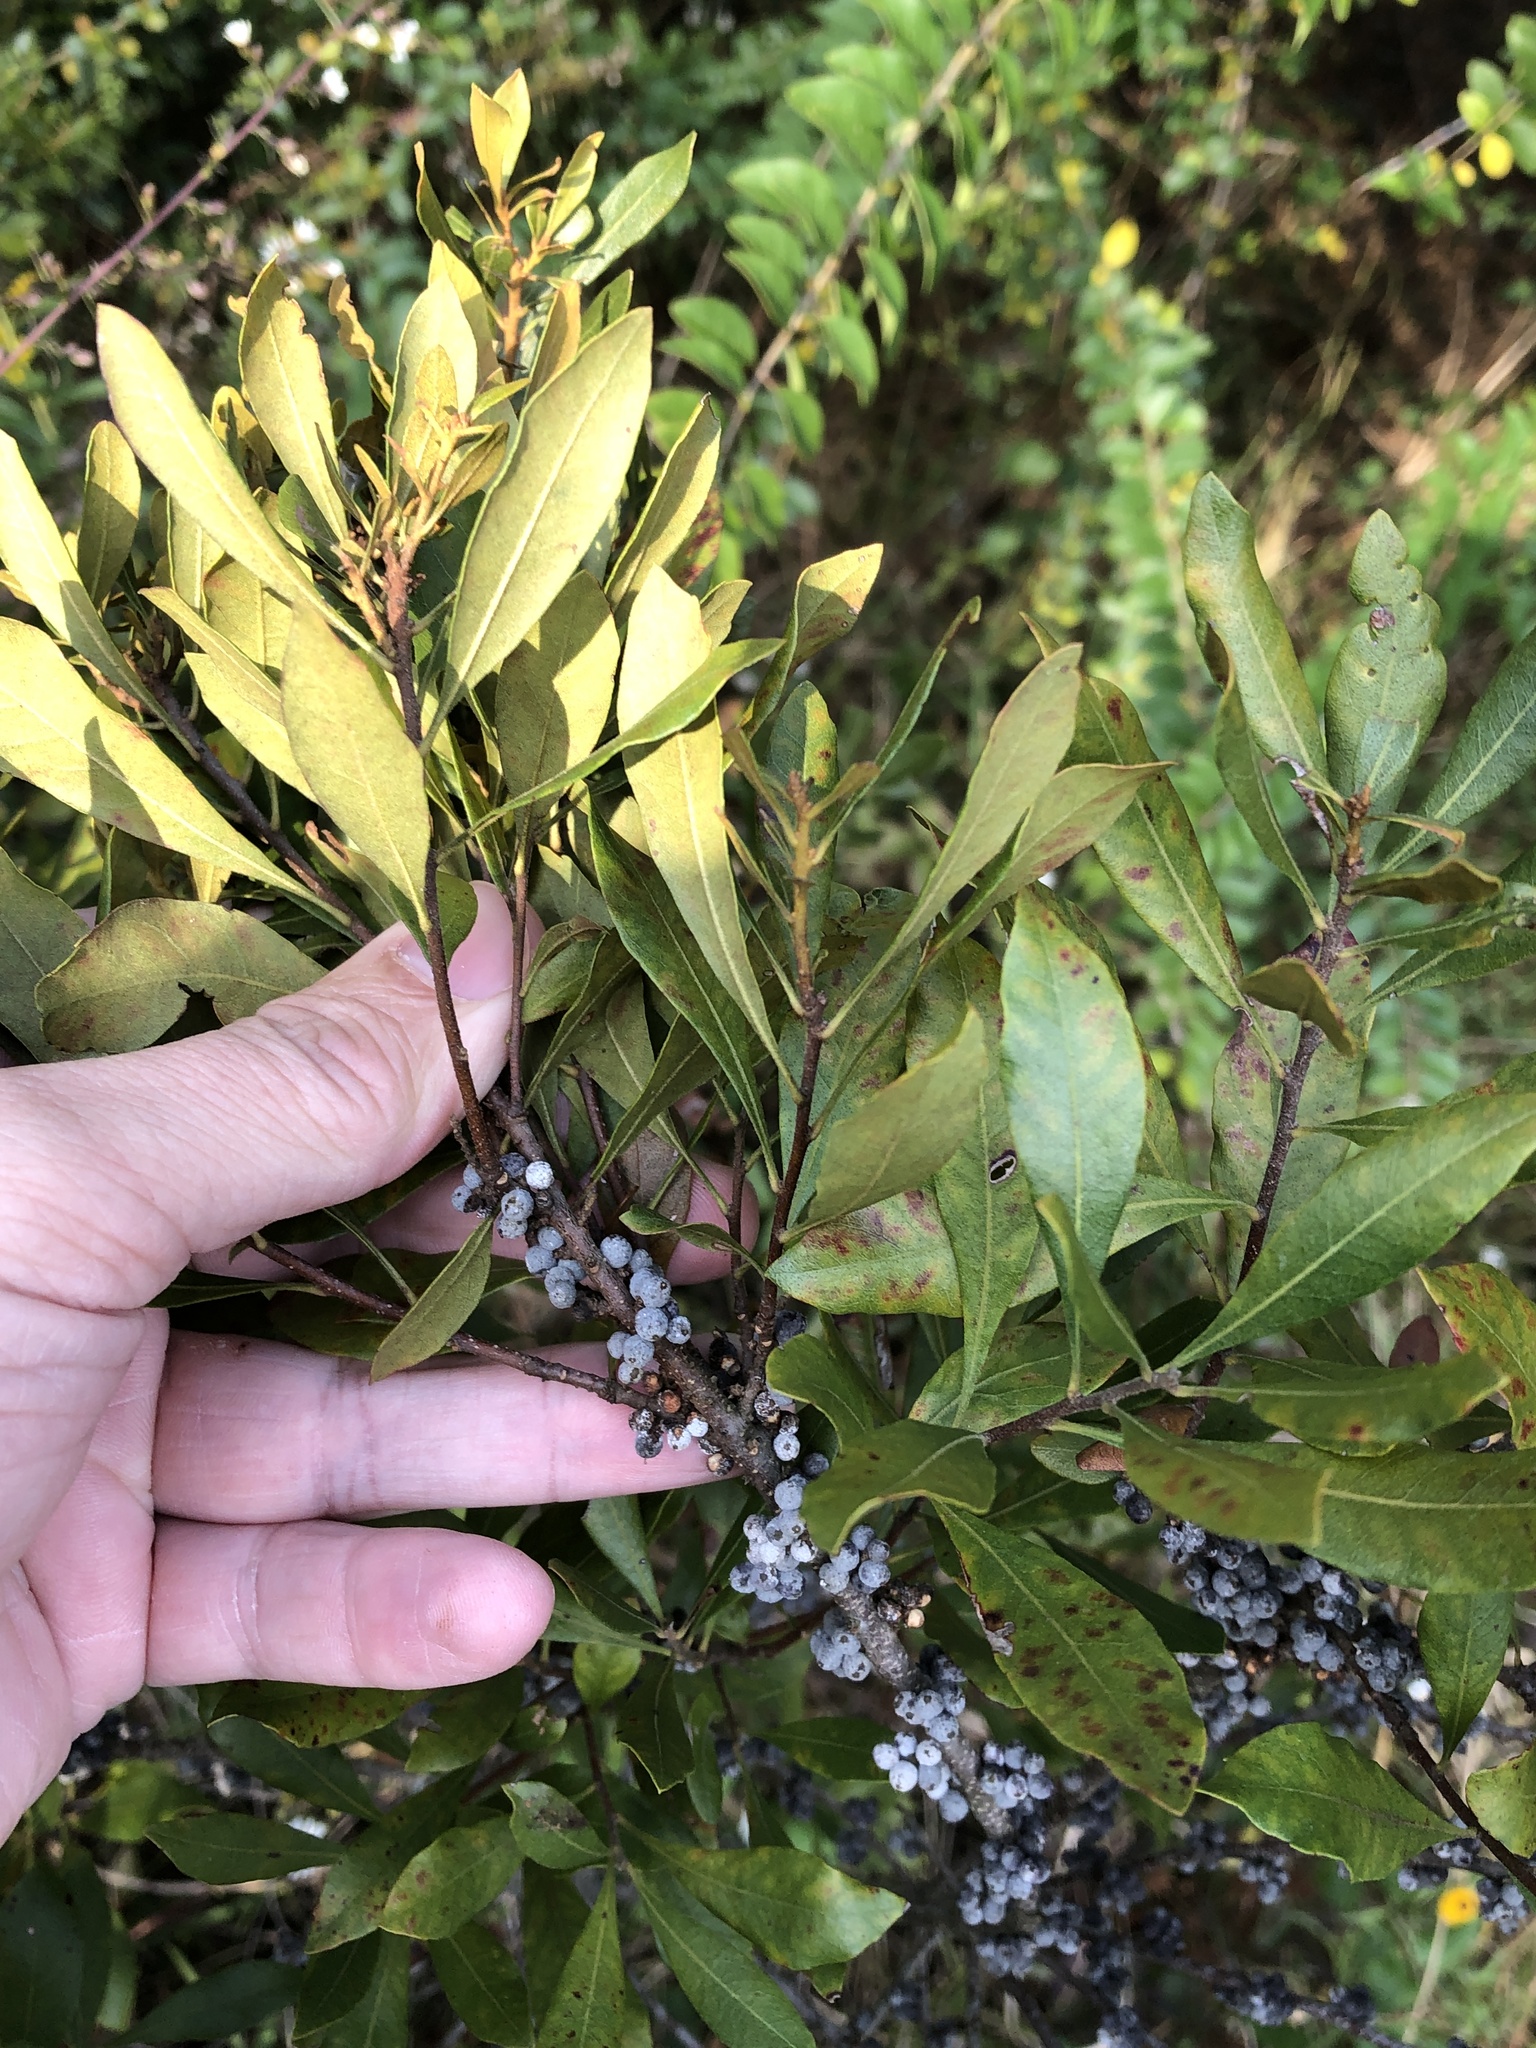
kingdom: Plantae
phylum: Tracheophyta
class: Magnoliopsida
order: Fagales
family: Myricaceae
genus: Morella
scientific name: Morella cerifera
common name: Wax myrtle
